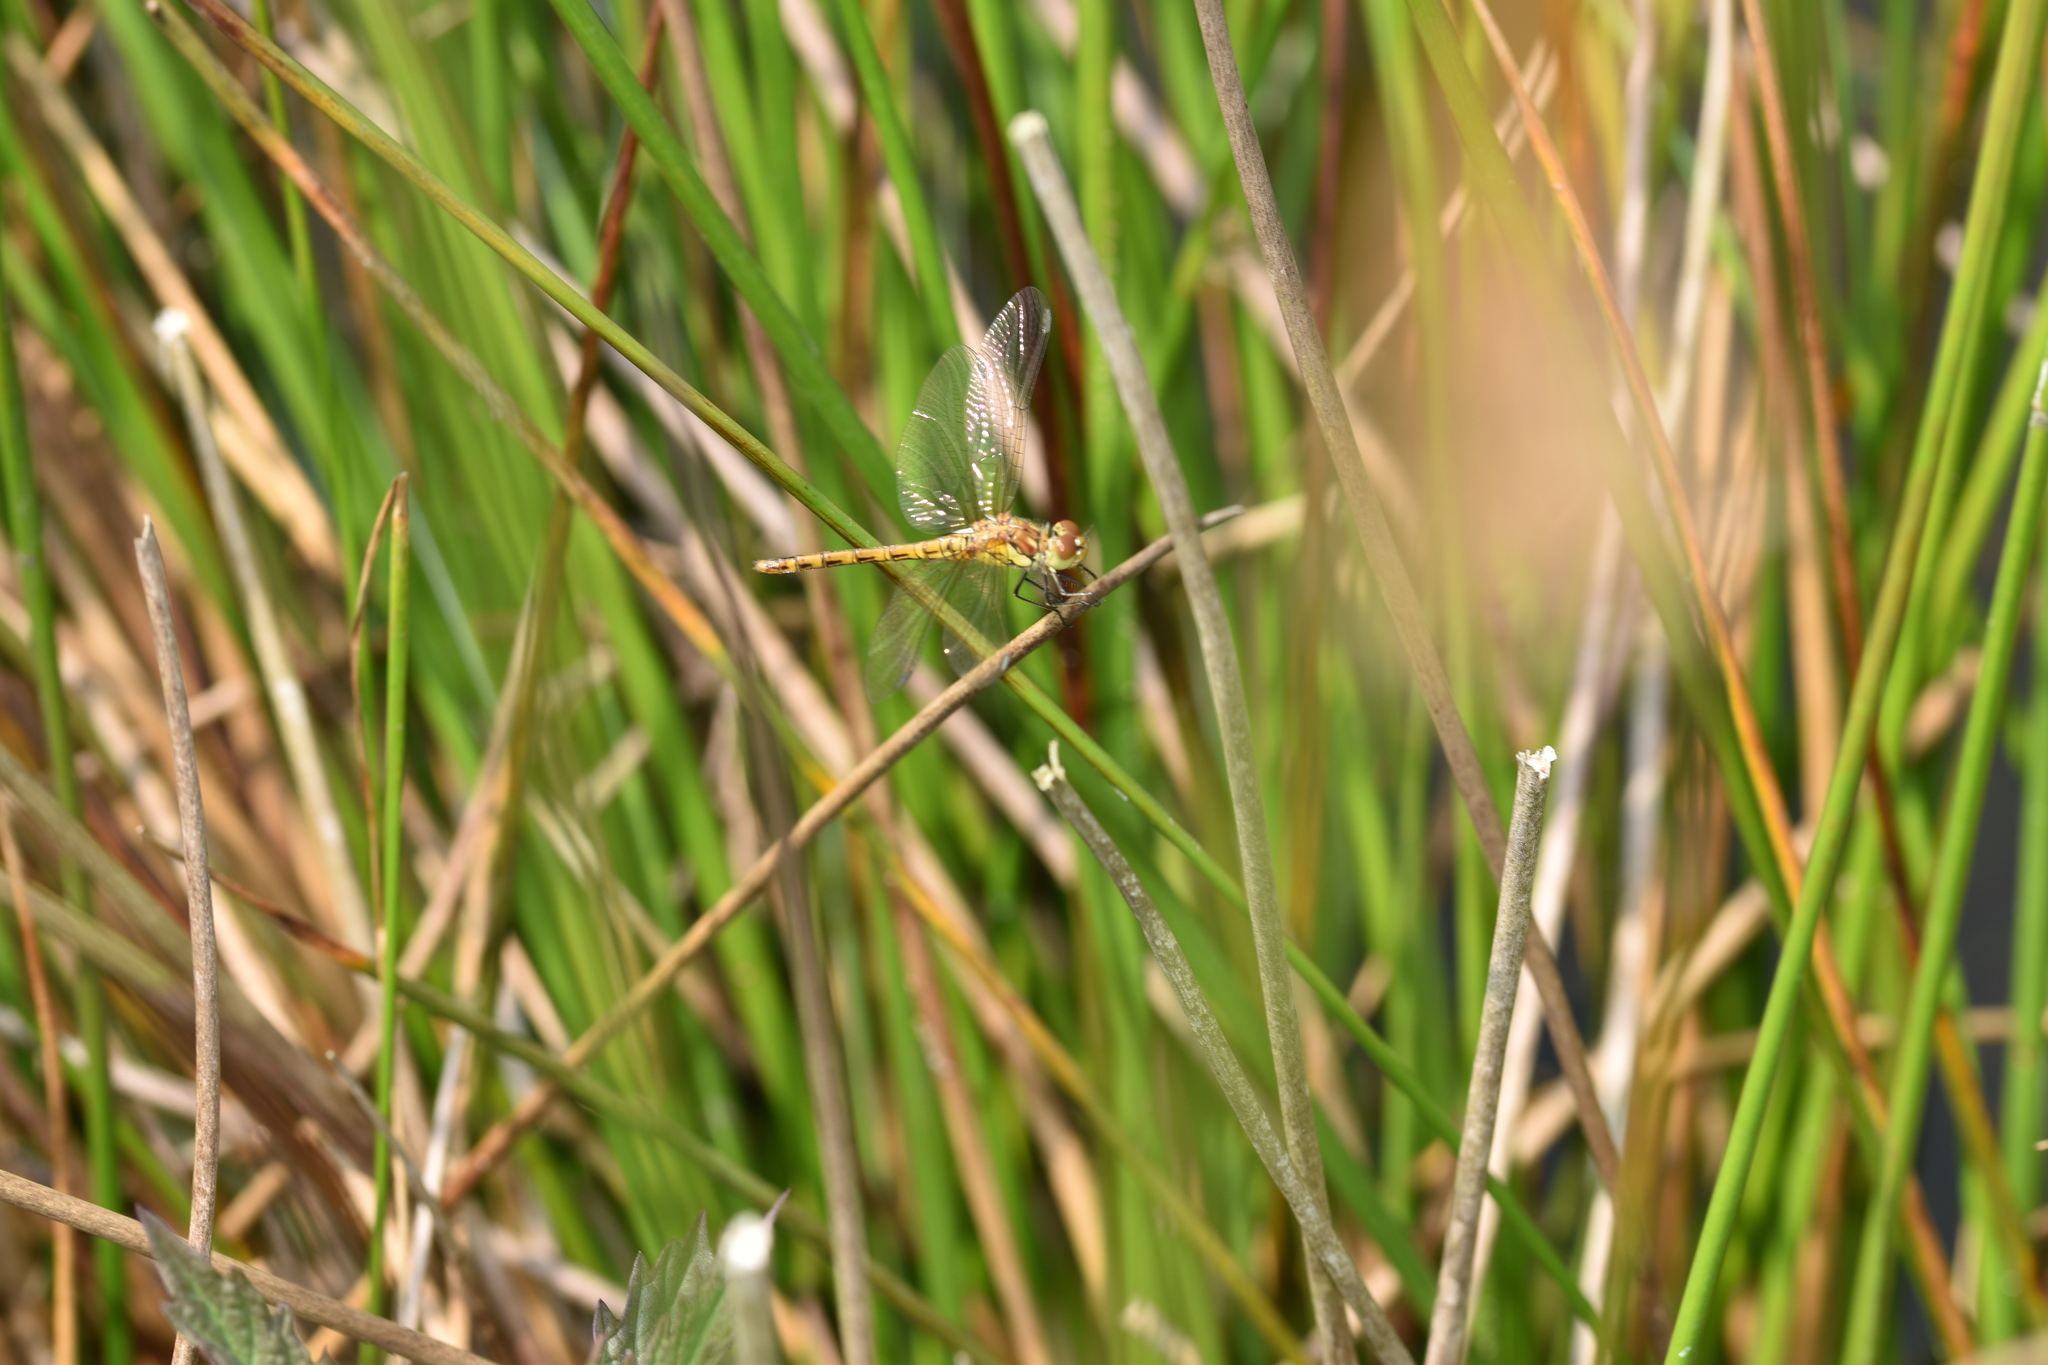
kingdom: Animalia
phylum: Arthropoda
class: Insecta
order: Odonata
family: Libellulidae
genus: Sympetrum
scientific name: Sympetrum striolatum
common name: Common darter
